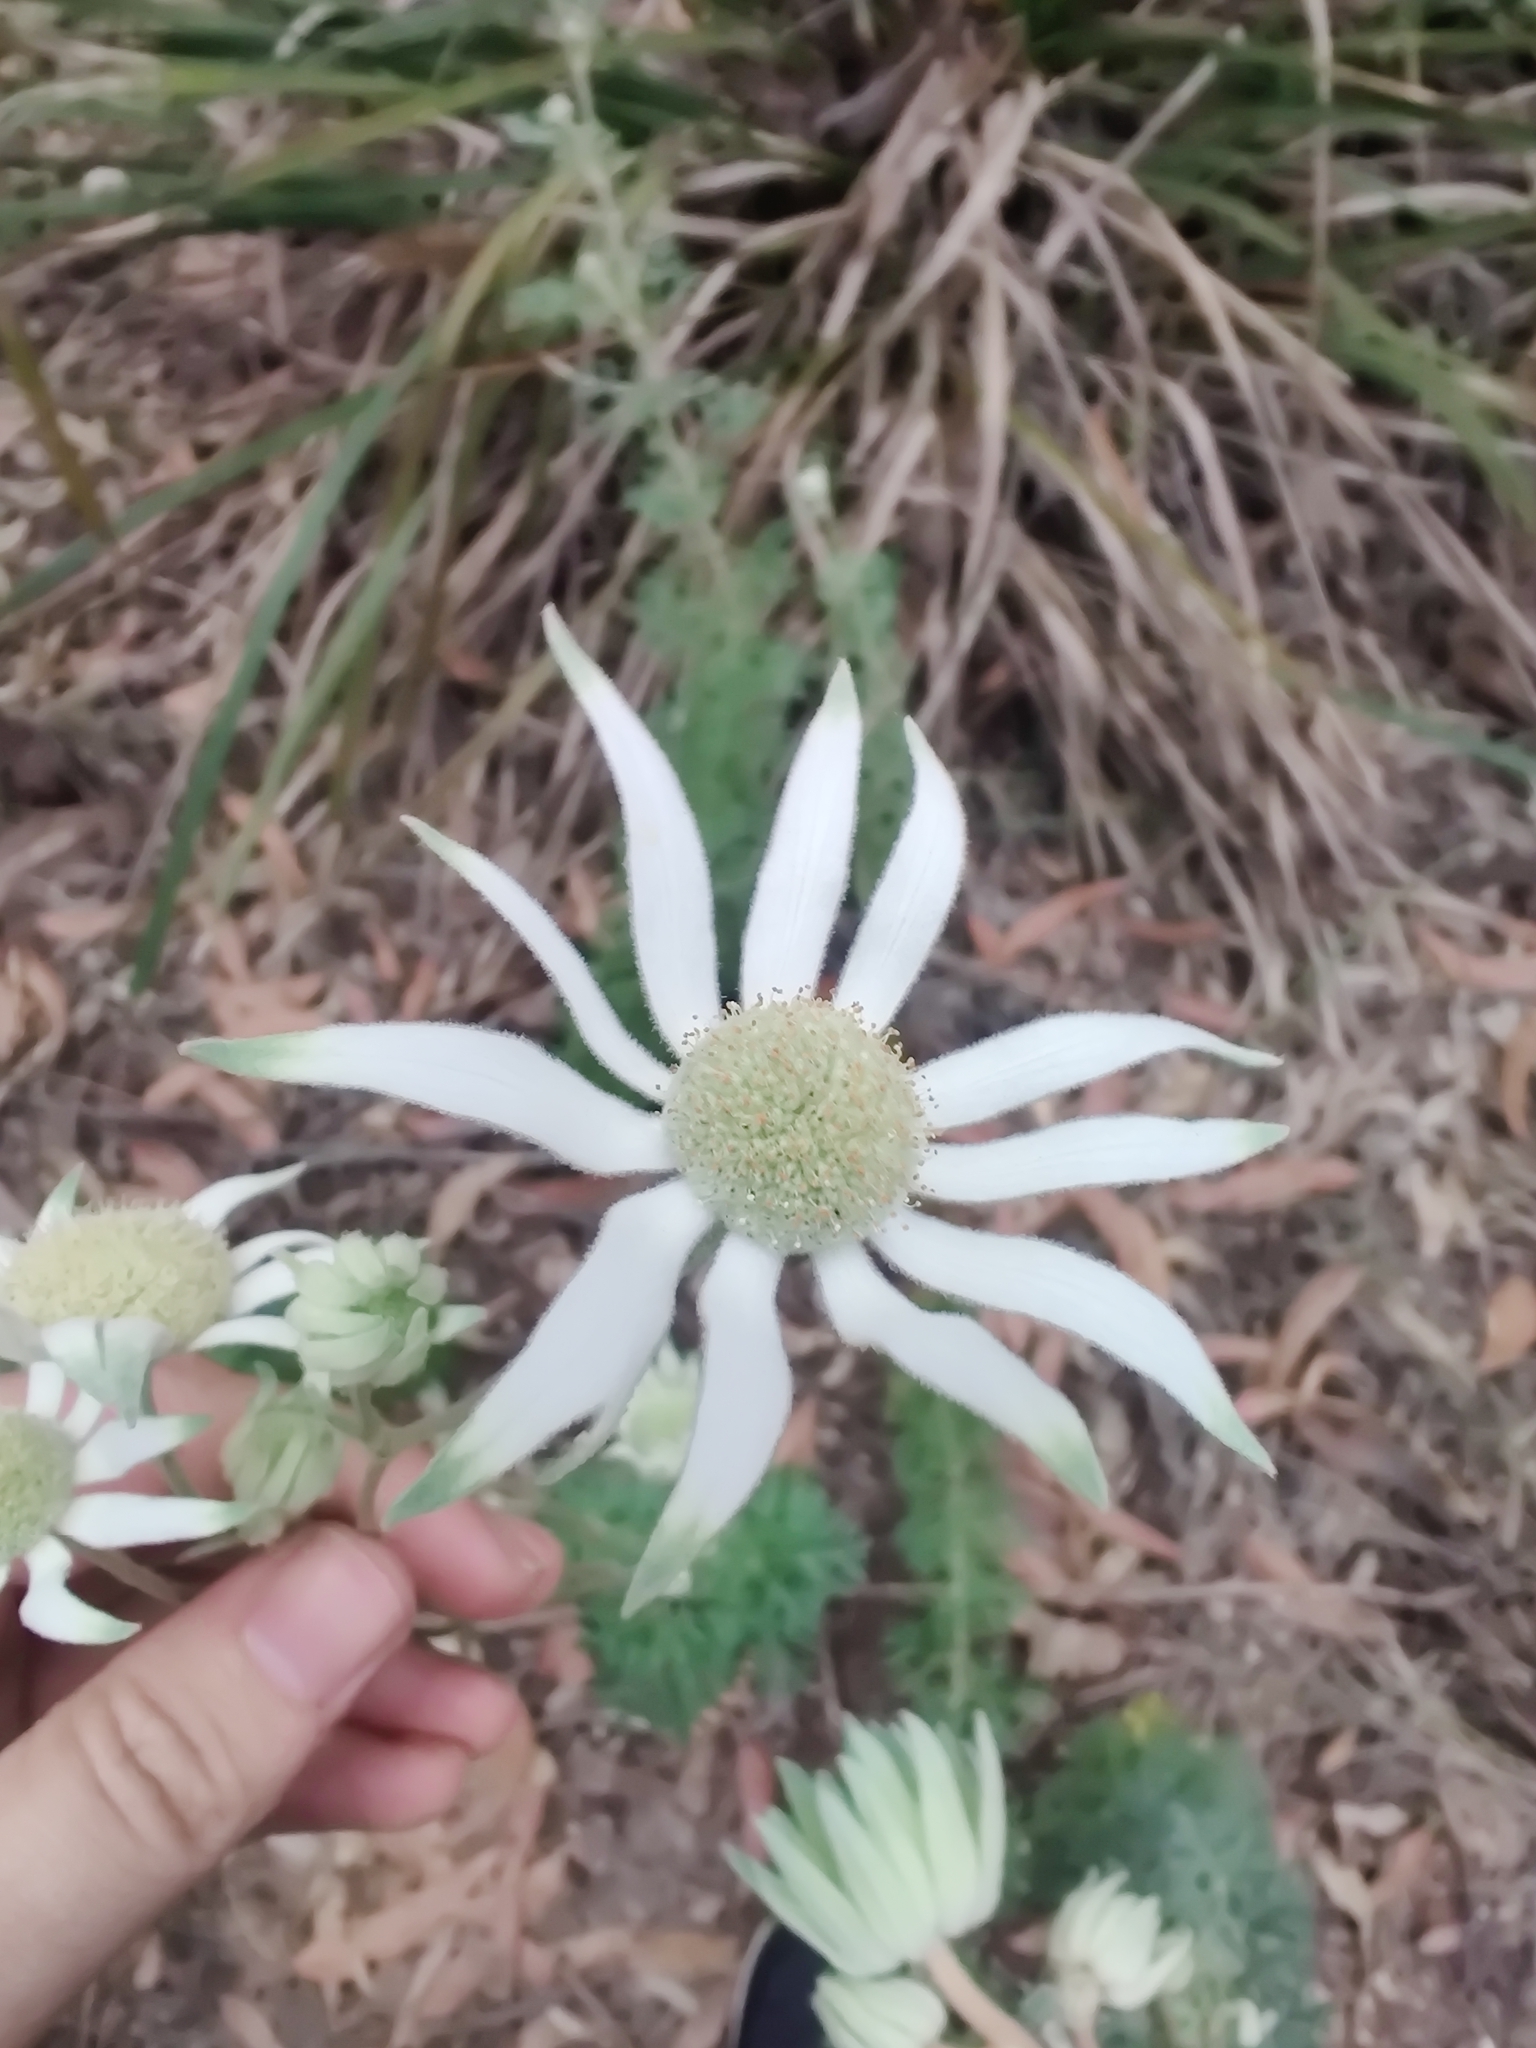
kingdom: Plantae
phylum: Tracheophyta
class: Magnoliopsida
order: Apiales
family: Apiaceae
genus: Actinotus
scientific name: Actinotus helianthi
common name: Flannel-flower
